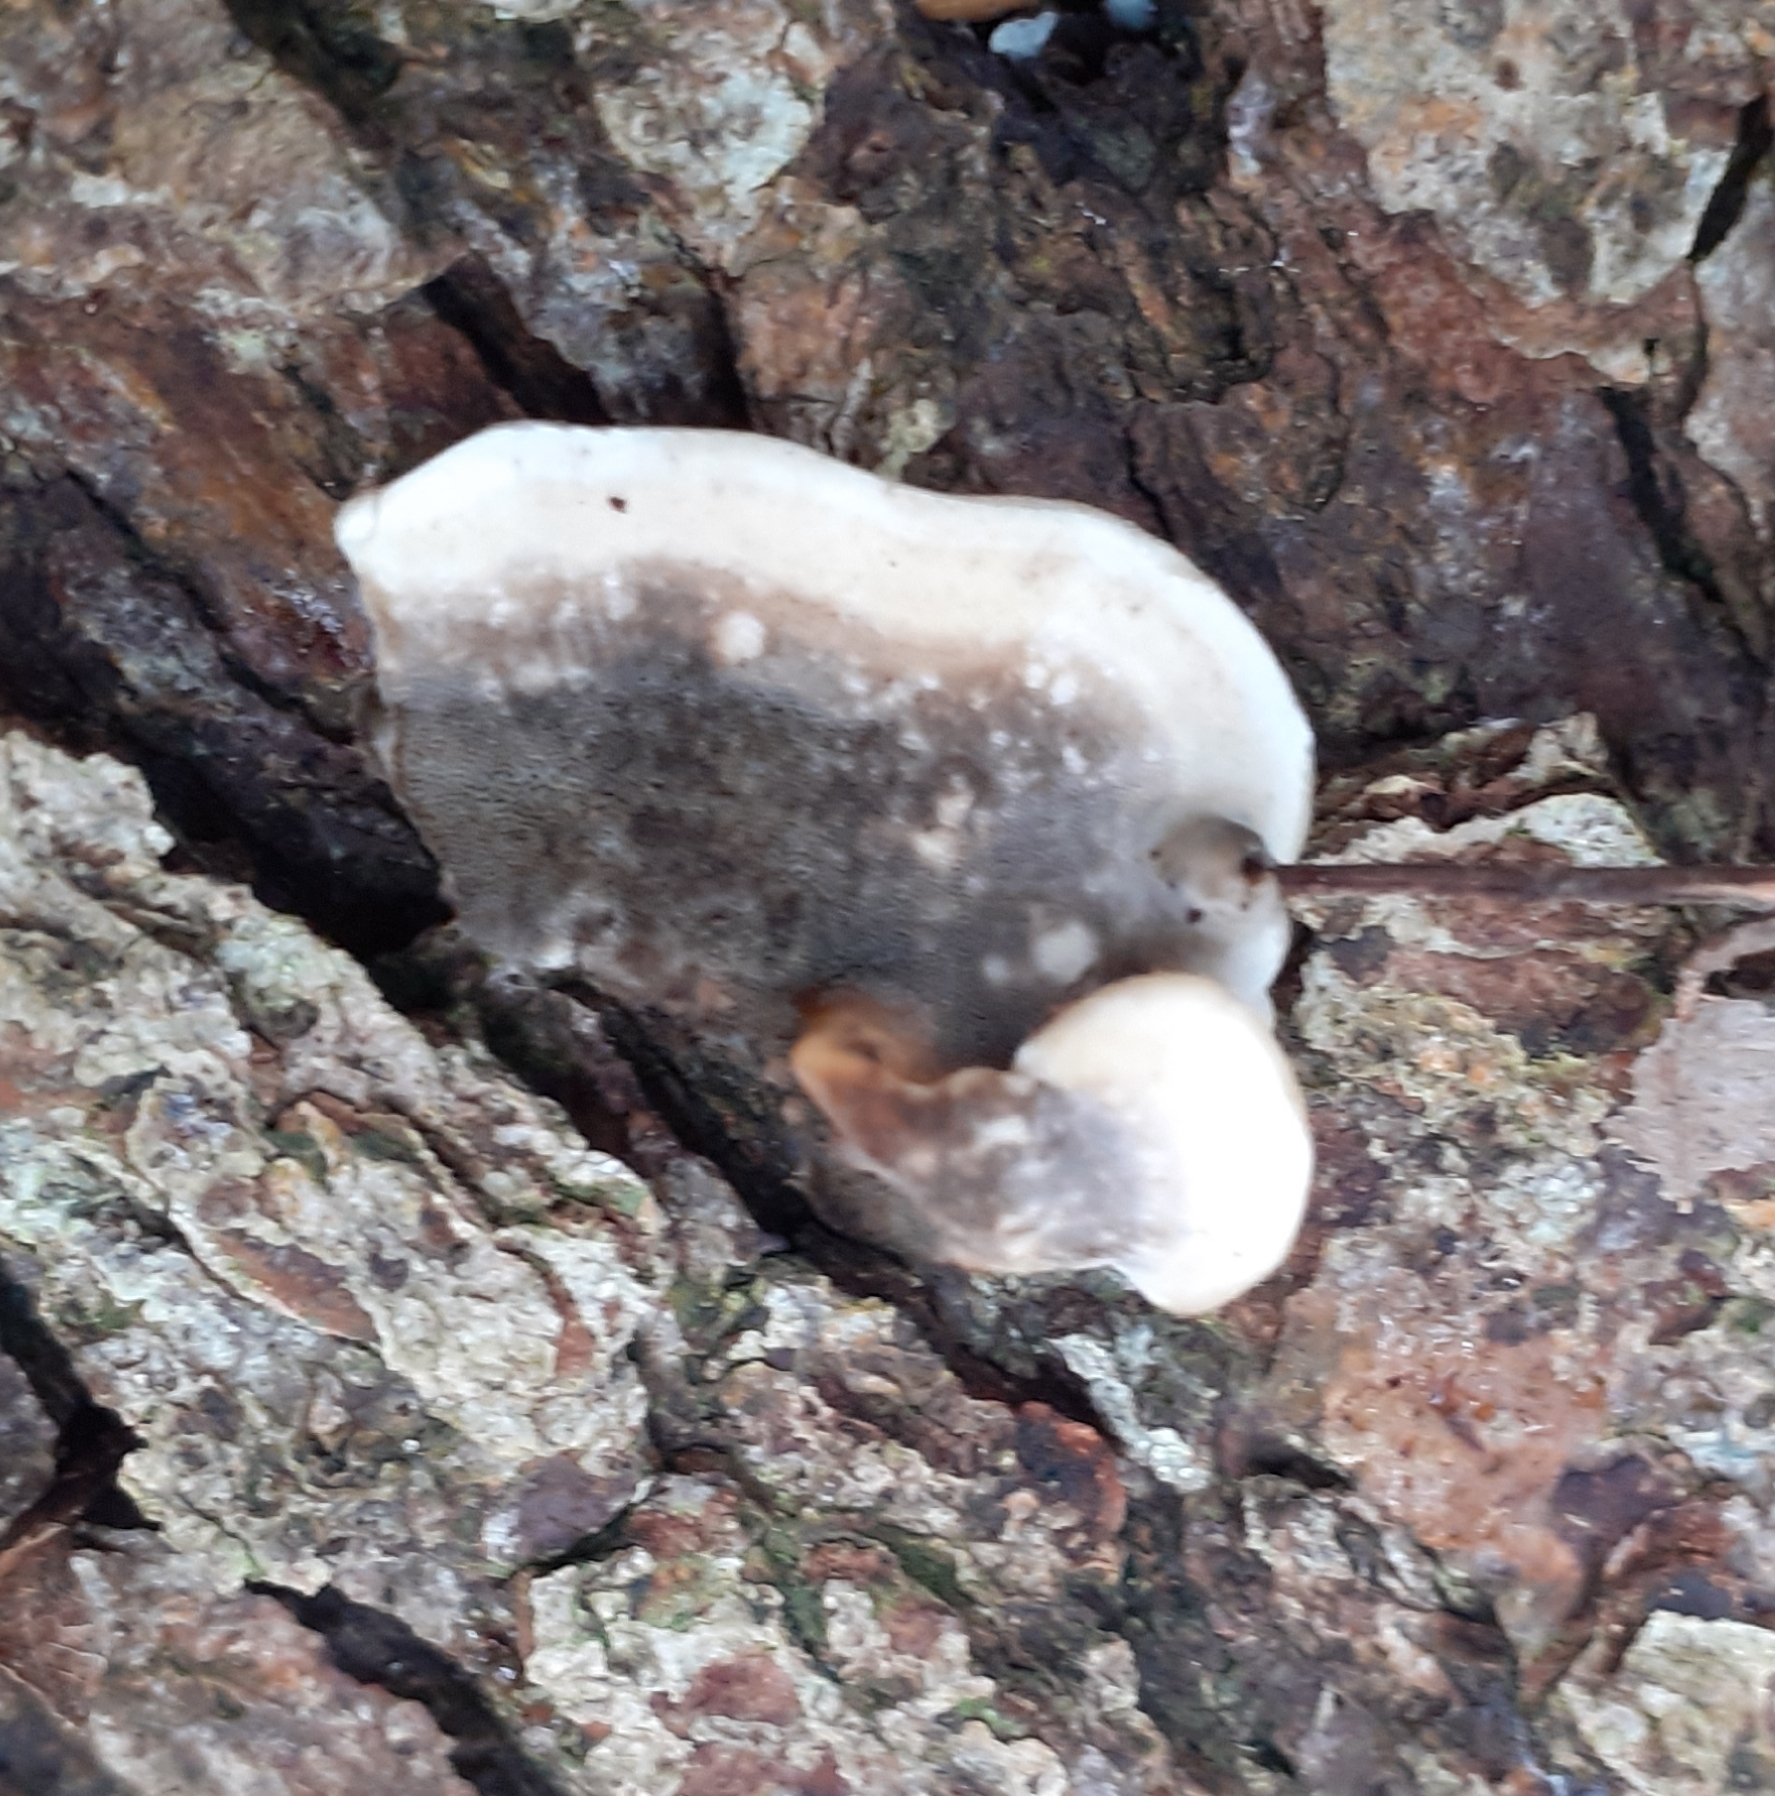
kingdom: Fungi
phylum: Basidiomycota
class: Agaricomycetes
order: Polyporales
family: Phanerochaetaceae
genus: Bjerkandera
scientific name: Bjerkandera adusta
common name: Smoky bracket
